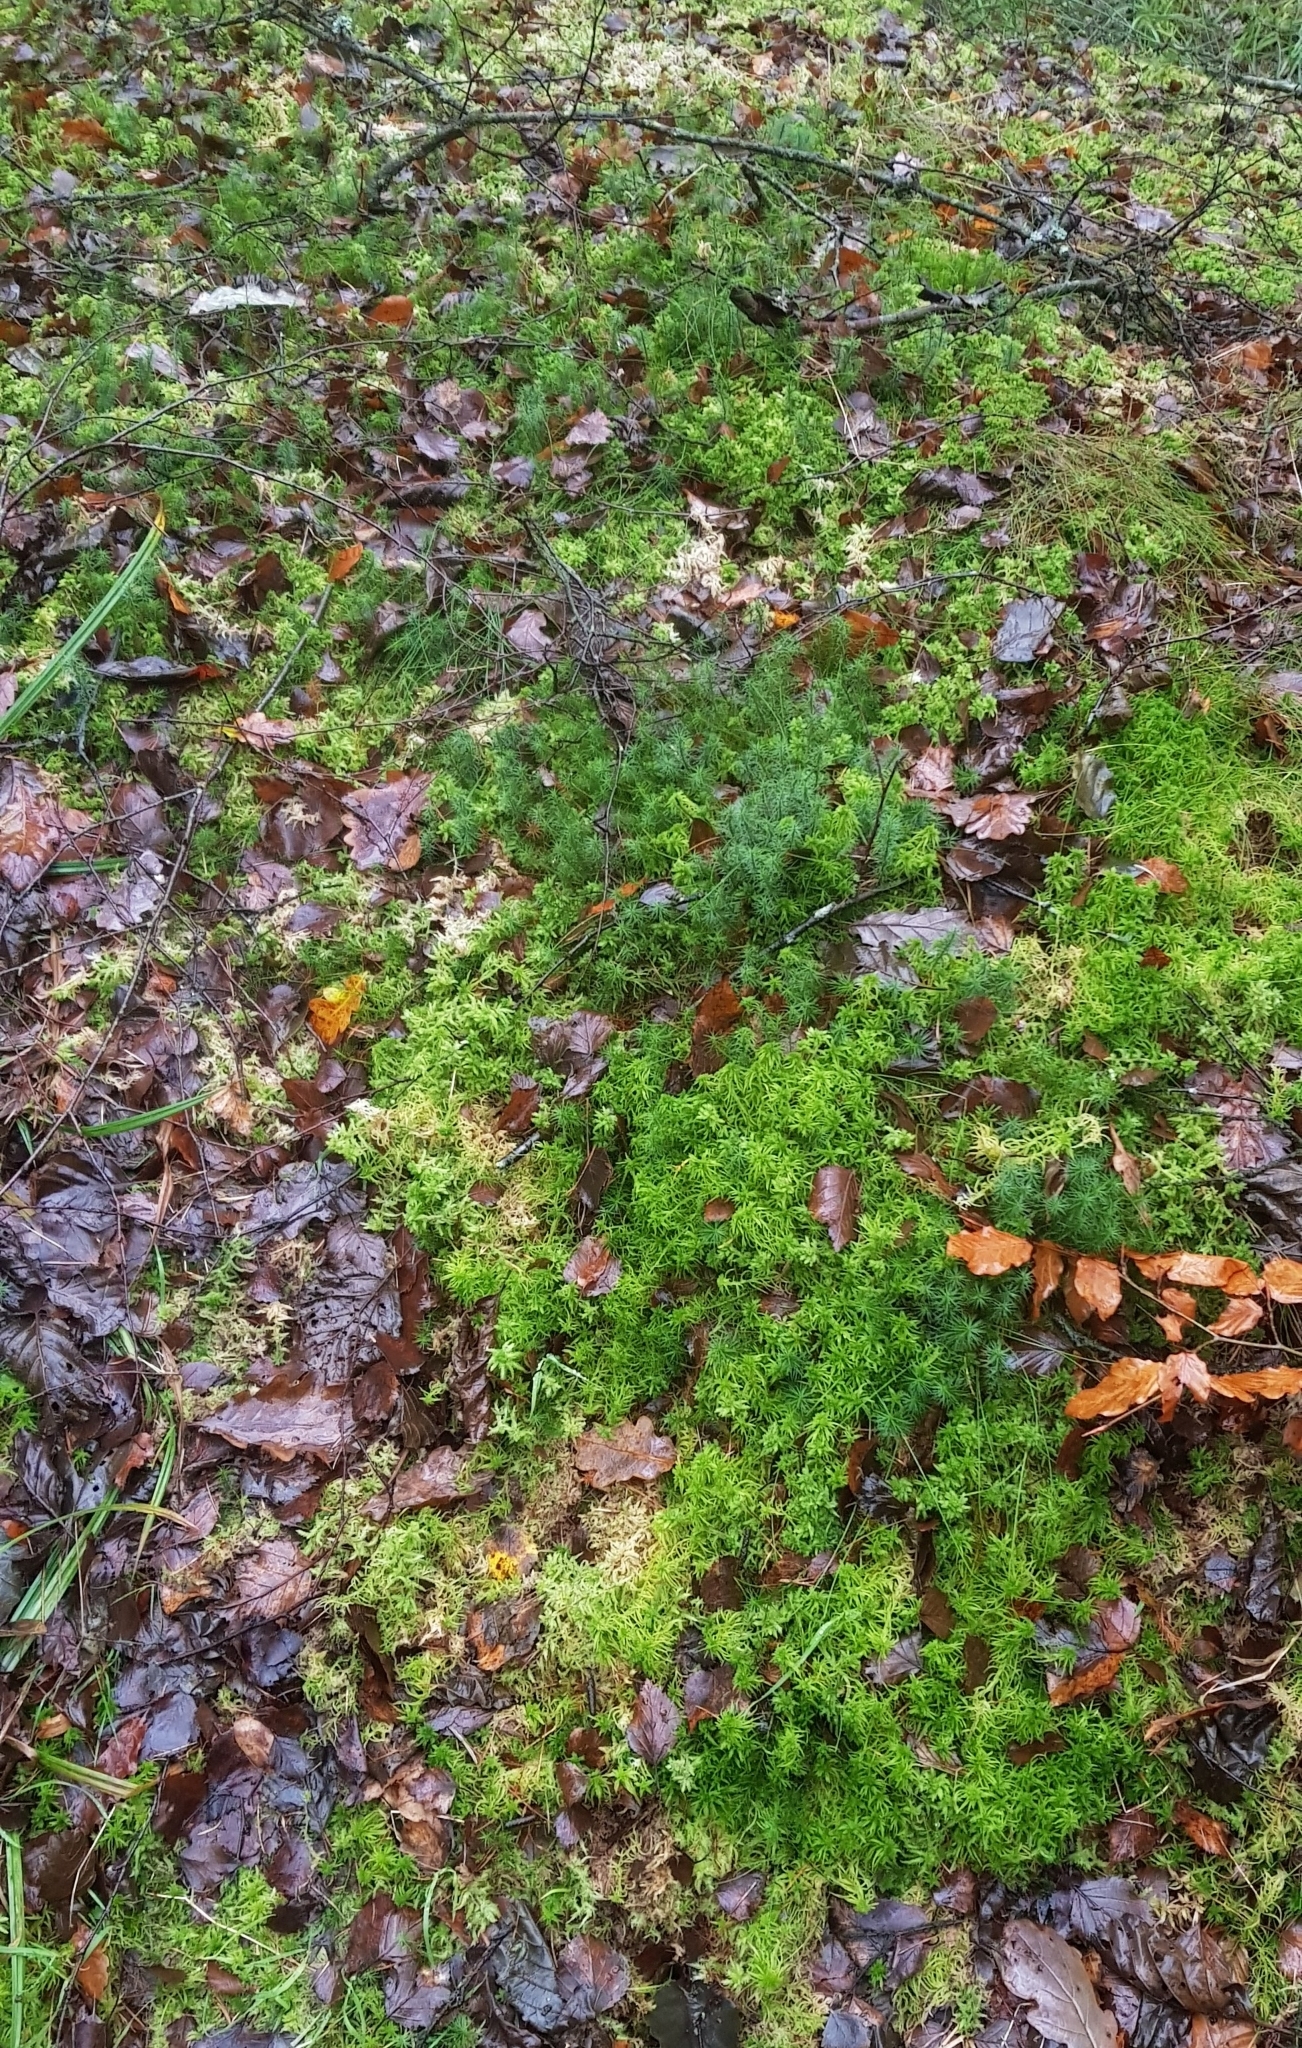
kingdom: Plantae
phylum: Bryophyta
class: Sphagnopsida
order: Sphagnales
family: Sphagnaceae
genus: Sphagnum
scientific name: Sphagnum fimbriatum
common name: Fringed peat moss
